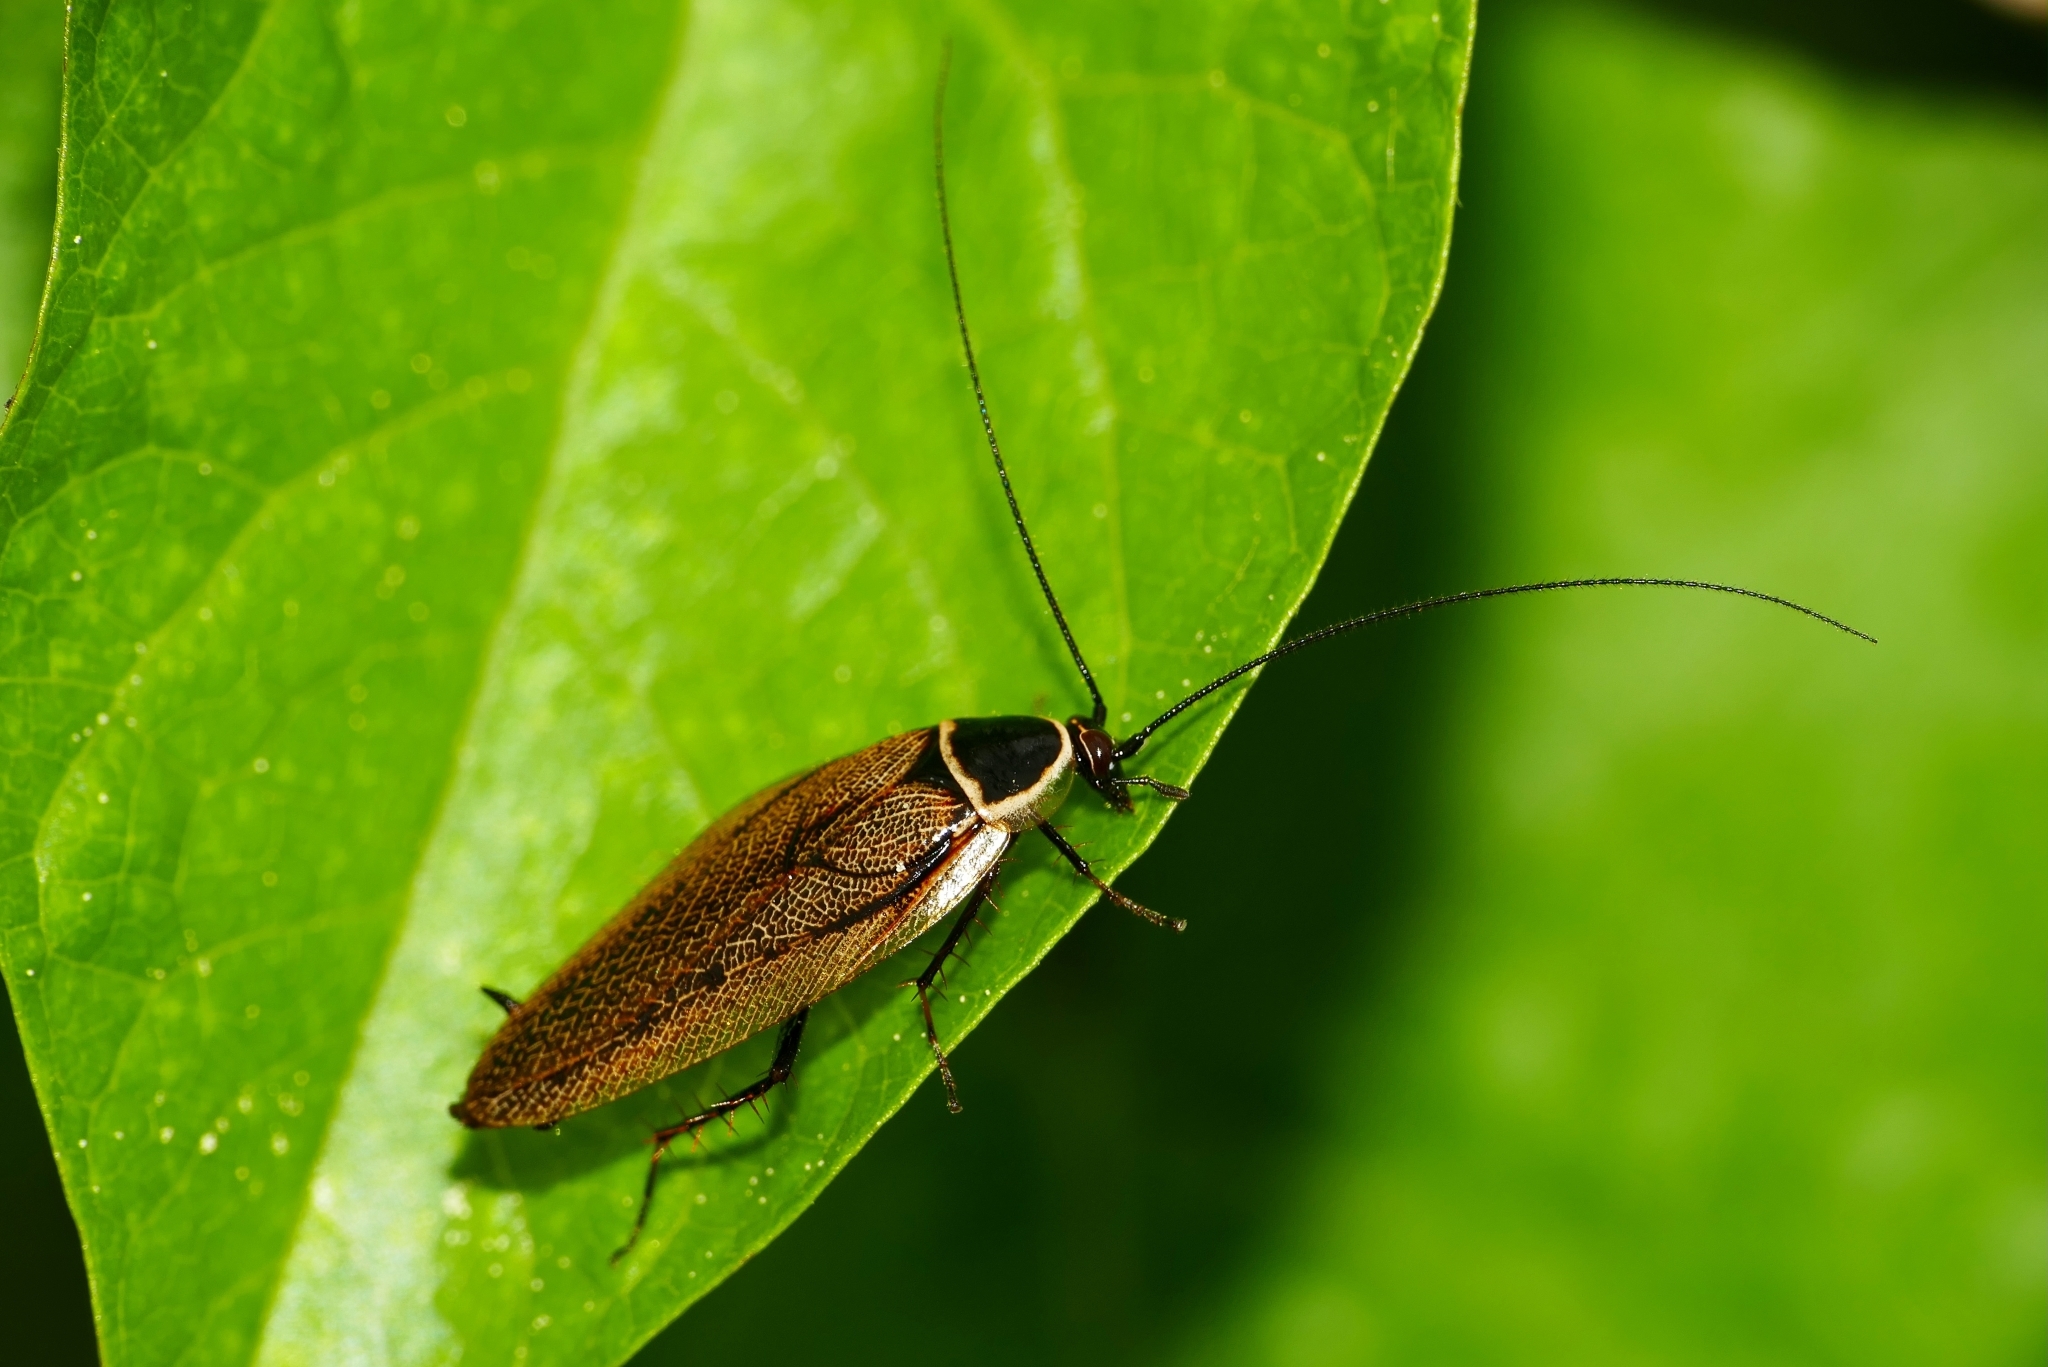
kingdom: Animalia
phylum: Arthropoda
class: Insecta
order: Blattodea
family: Ectobiidae
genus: Ectobius
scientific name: Ectobius sylvestris
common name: Forest cockroach
